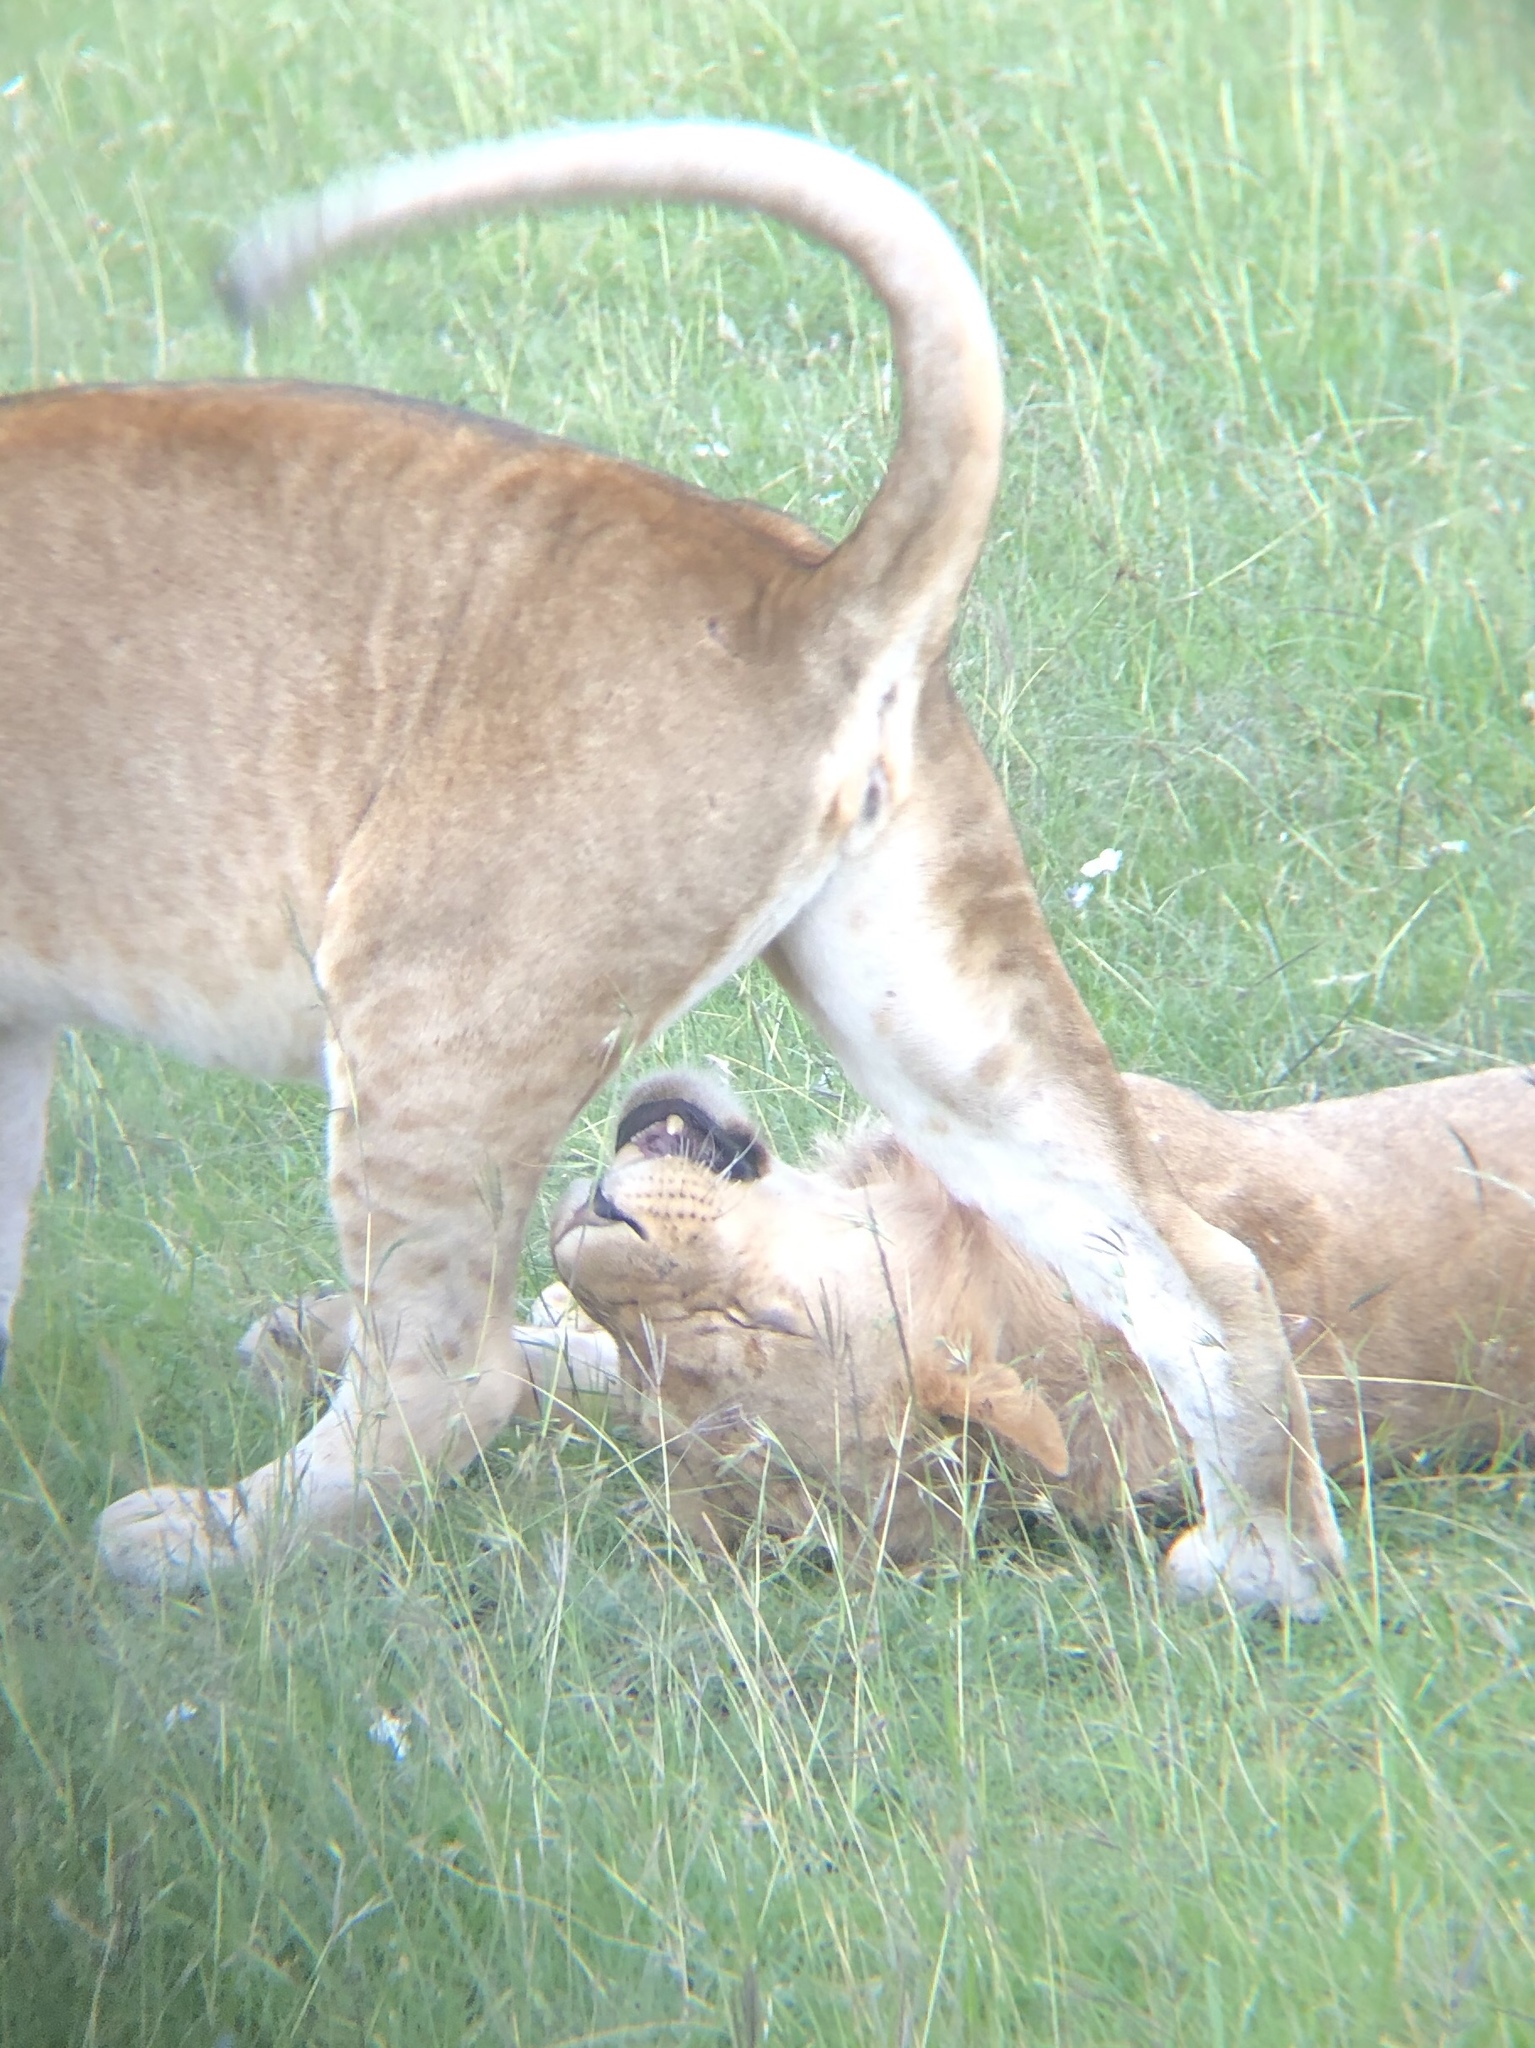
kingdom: Animalia
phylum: Chordata
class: Mammalia
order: Carnivora
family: Felidae
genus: Panthera
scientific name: Panthera leo
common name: Lion
